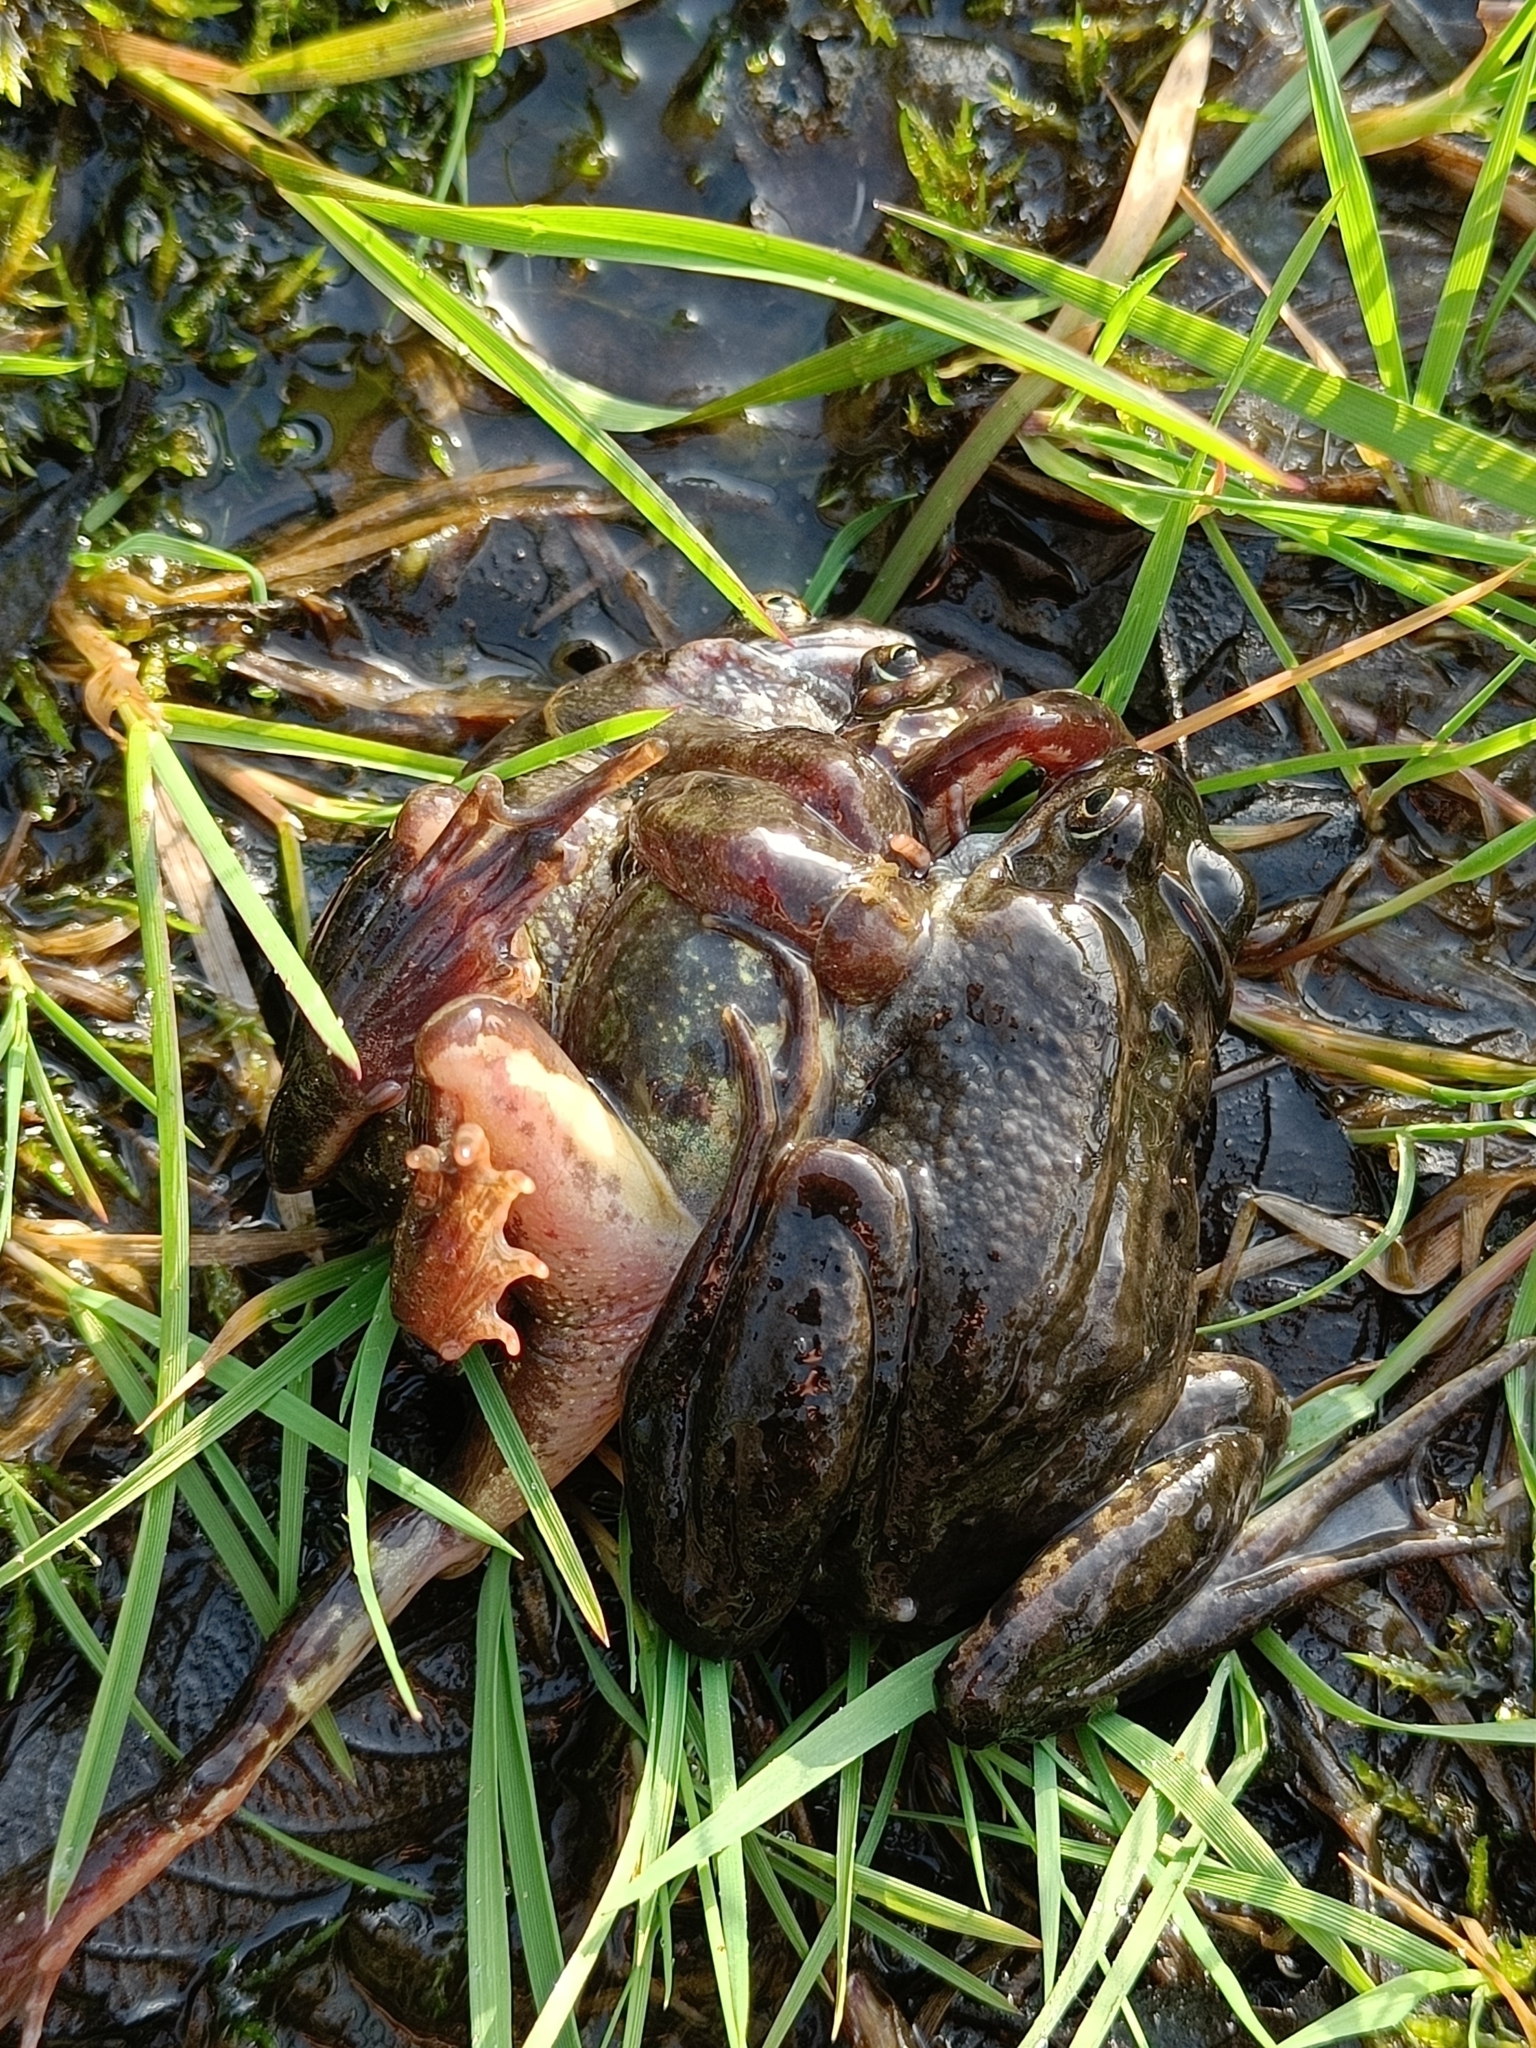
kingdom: Animalia
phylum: Chordata
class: Amphibia
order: Anura
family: Ranidae
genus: Rana
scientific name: Rana temporaria
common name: Common frog
